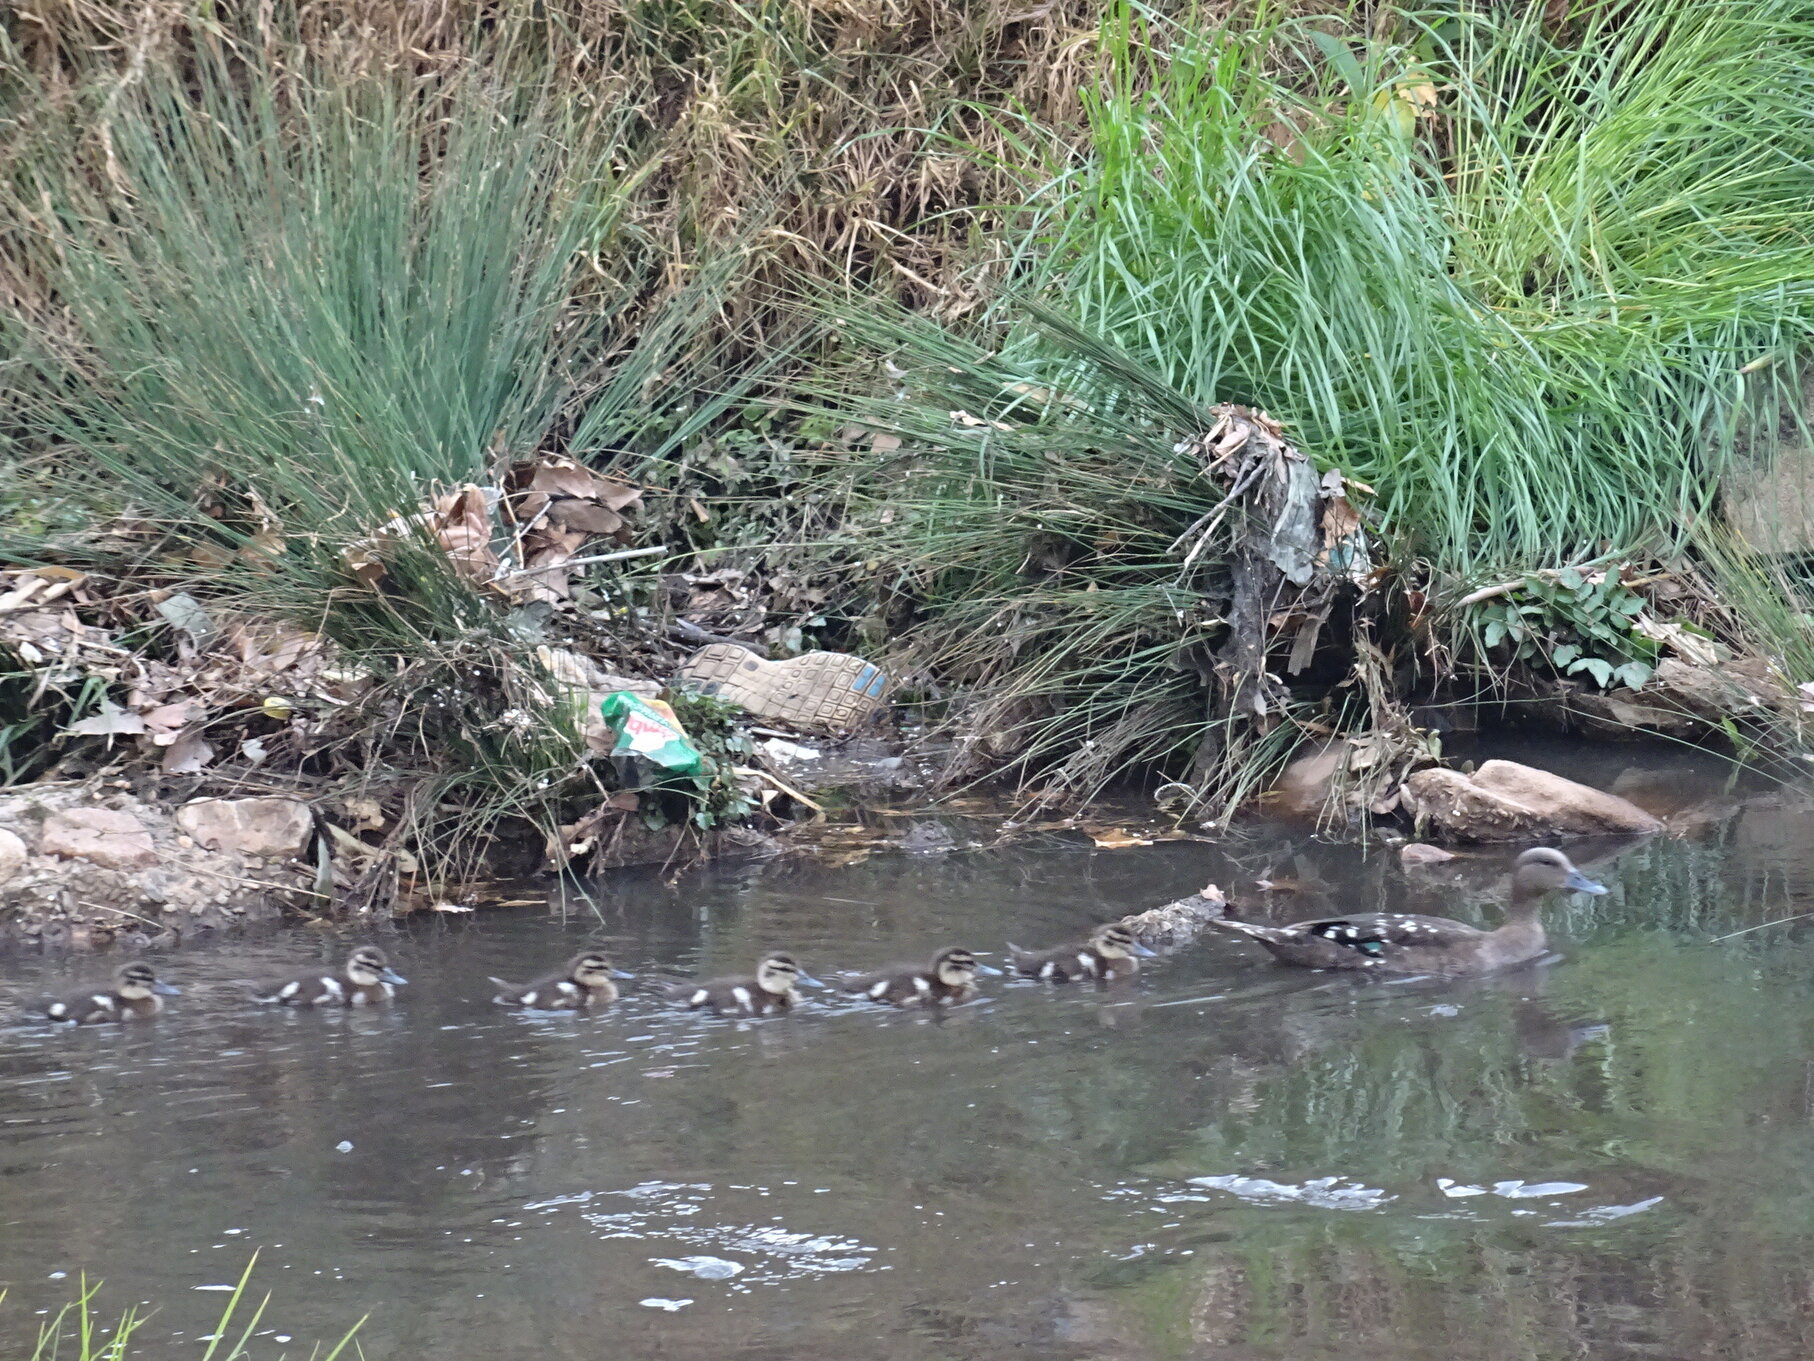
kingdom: Animalia
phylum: Chordata
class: Aves
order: Anseriformes
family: Anatidae
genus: Anas
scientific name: Anas sparsa
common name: African black duck
